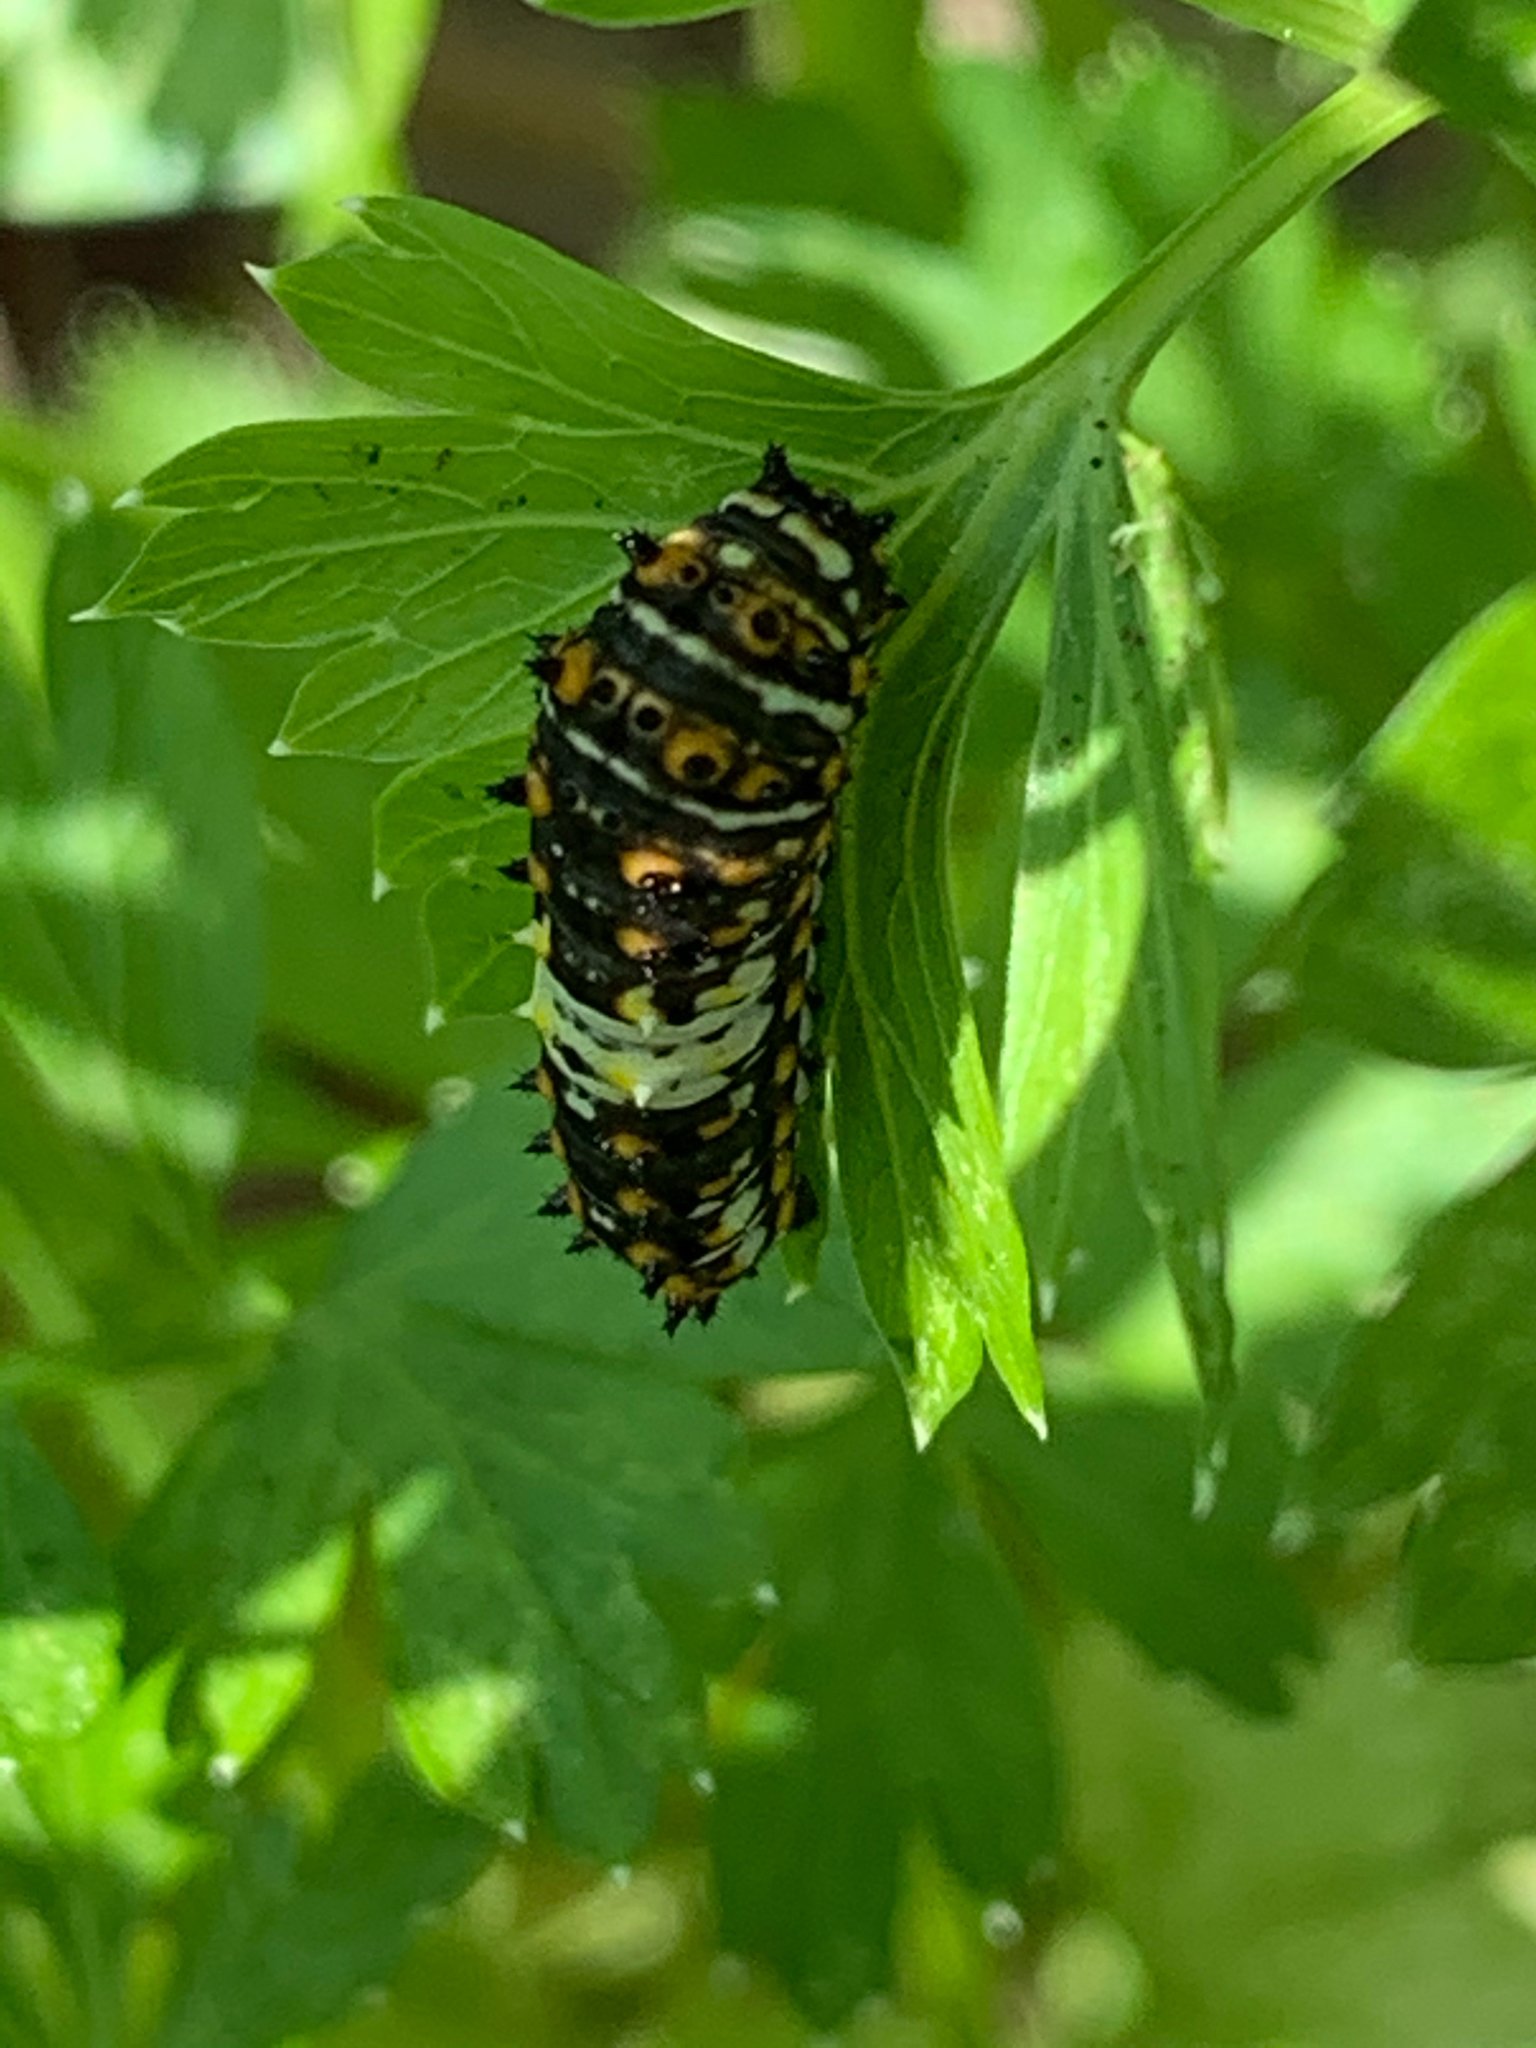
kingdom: Animalia
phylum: Arthropoda
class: Insecta
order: Lepidoptera
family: Papilionidae
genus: Papilio
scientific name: Papilio polyxenes
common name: Black swallowtail
